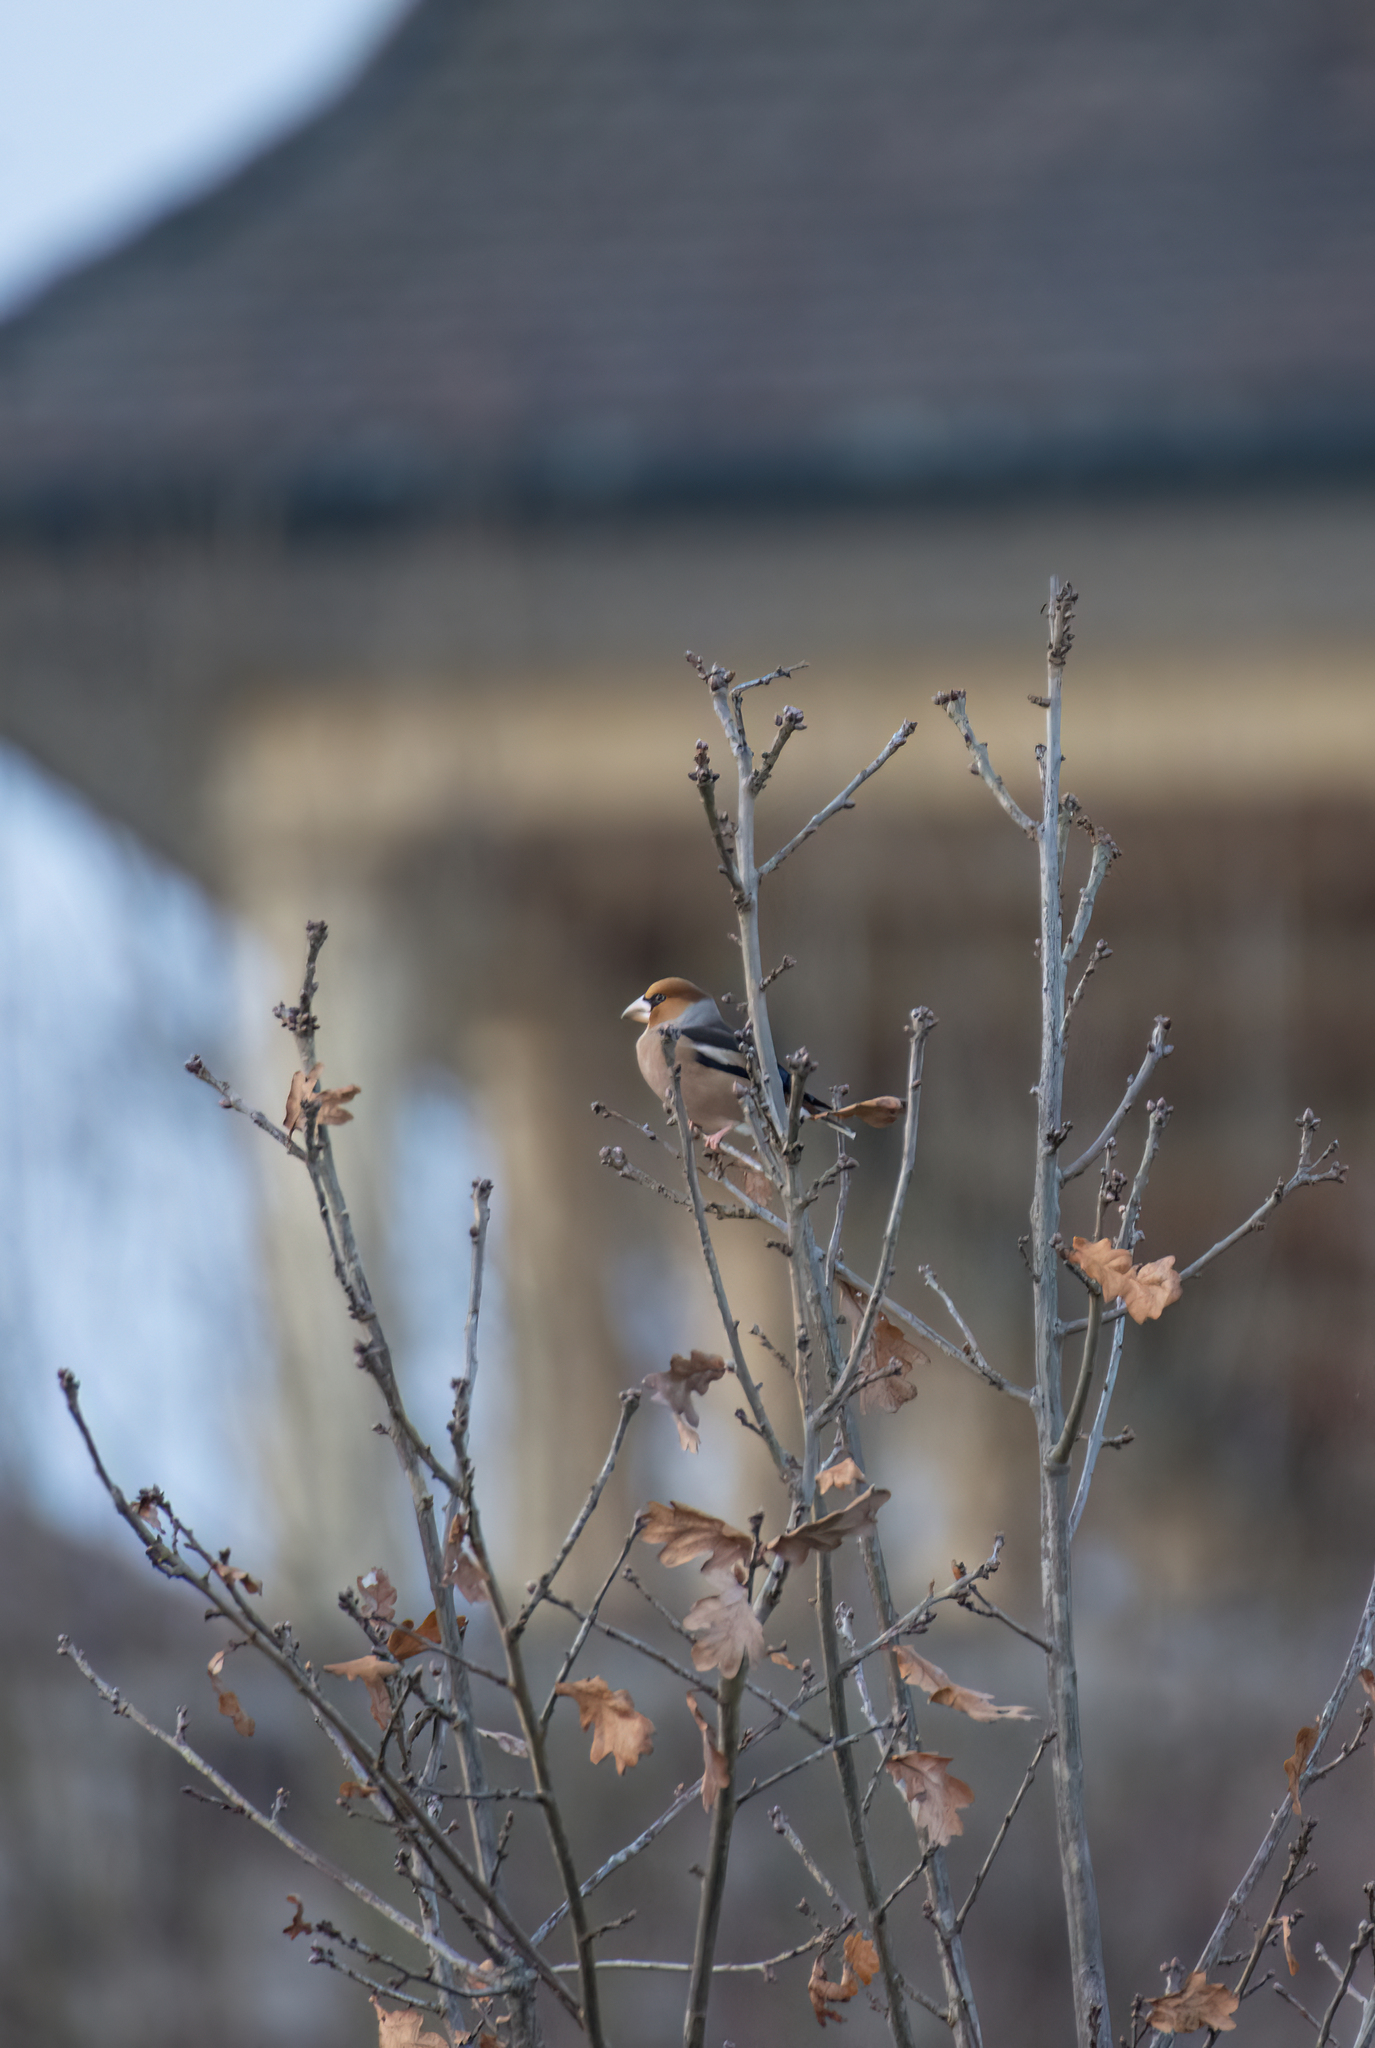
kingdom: Animalia
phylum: Chordata
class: Aves
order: Passeriformes
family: Fringillidae
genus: Coccothraustes
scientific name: Coccothraustes coccothraustes
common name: Hawfinch
